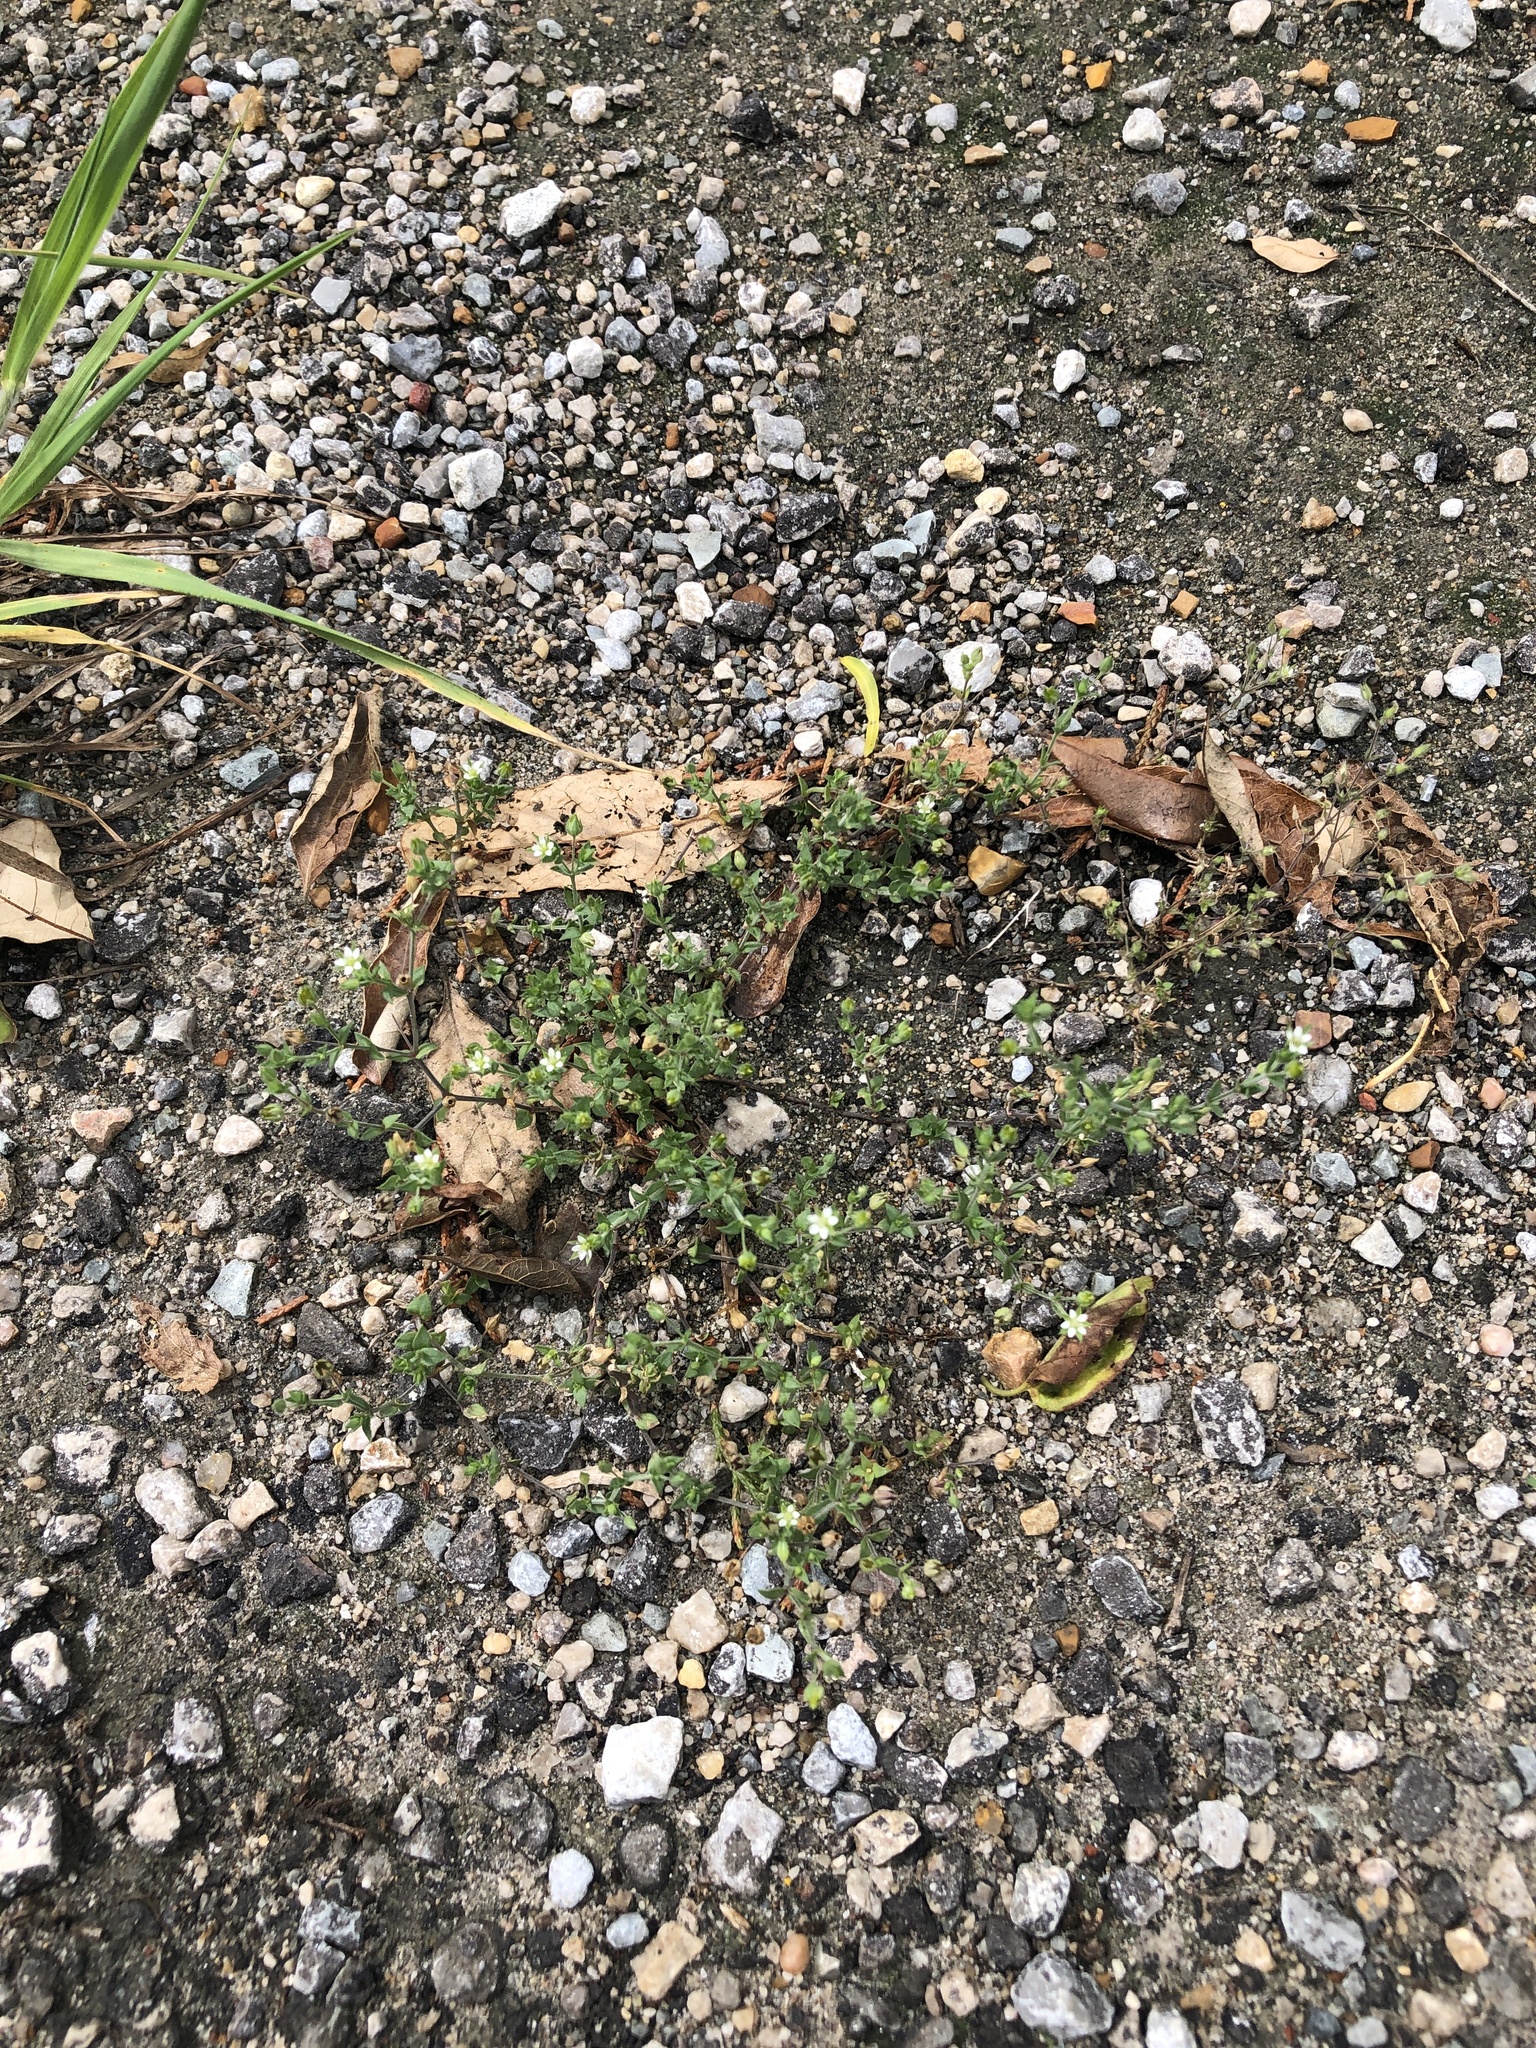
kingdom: Plantae
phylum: Tracheophyta
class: Magnoliopsida
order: Caryophyllales
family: Caryophyllaceae
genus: Arenaria
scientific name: Arenaria serpyllifolia
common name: Thyme-leaved sandwort
